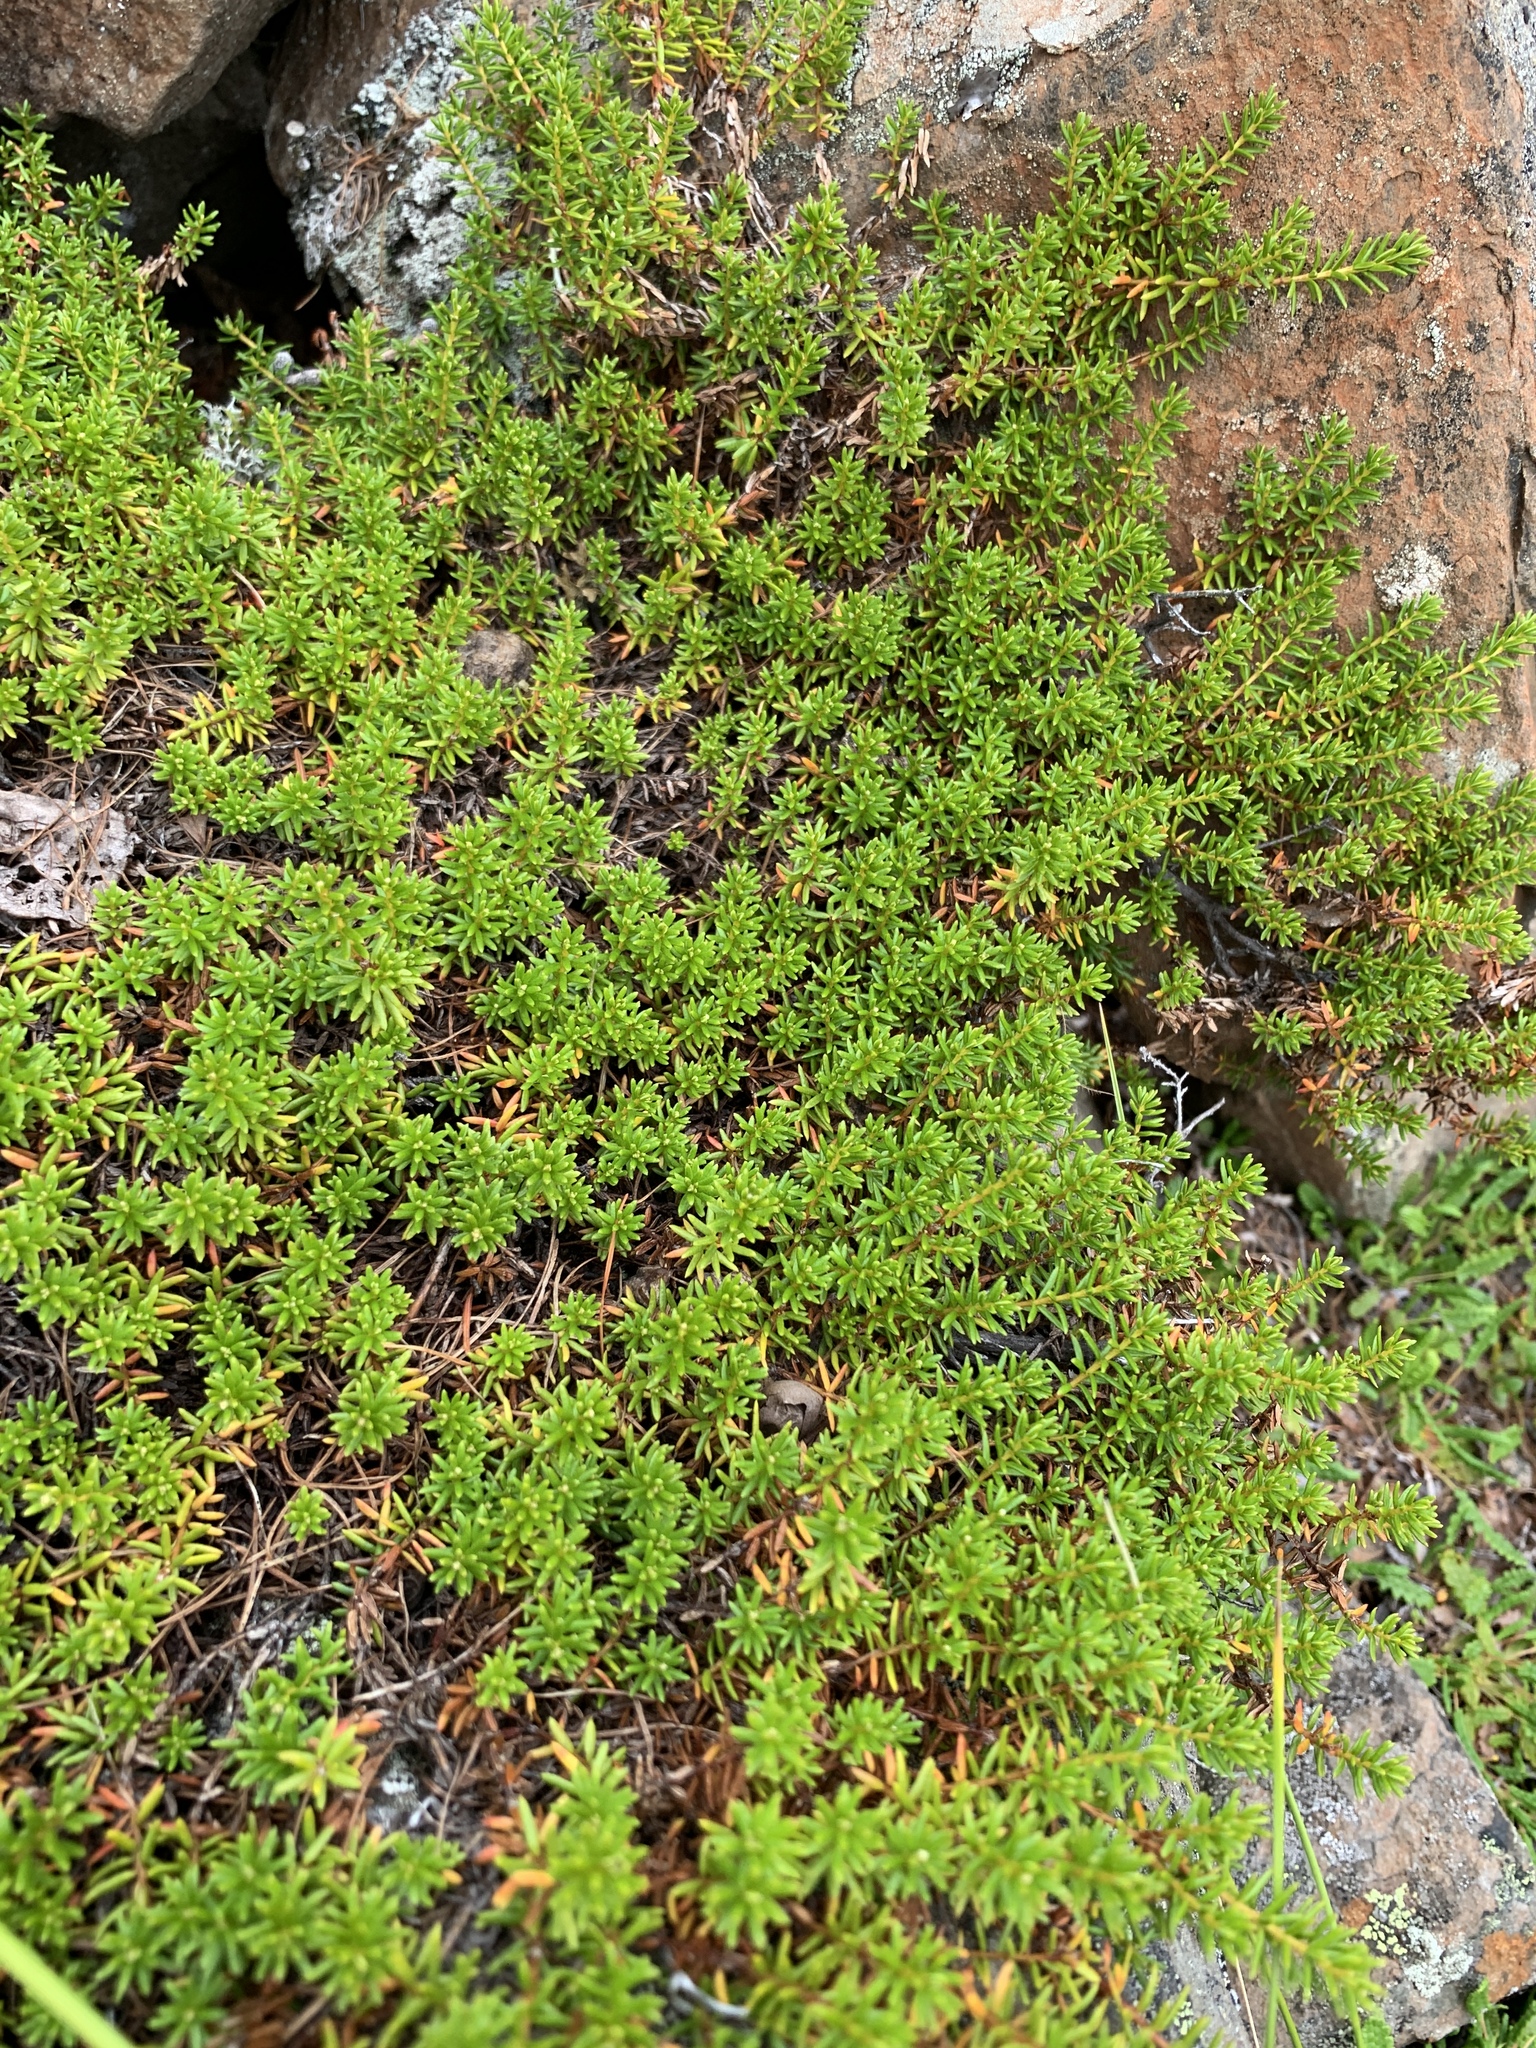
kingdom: Plantae
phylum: Tracheophyta
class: Magnoliopsida
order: Ericales
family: Ericaceae
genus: Empetrum
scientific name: Empetrum nigrum
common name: Black crowberry
